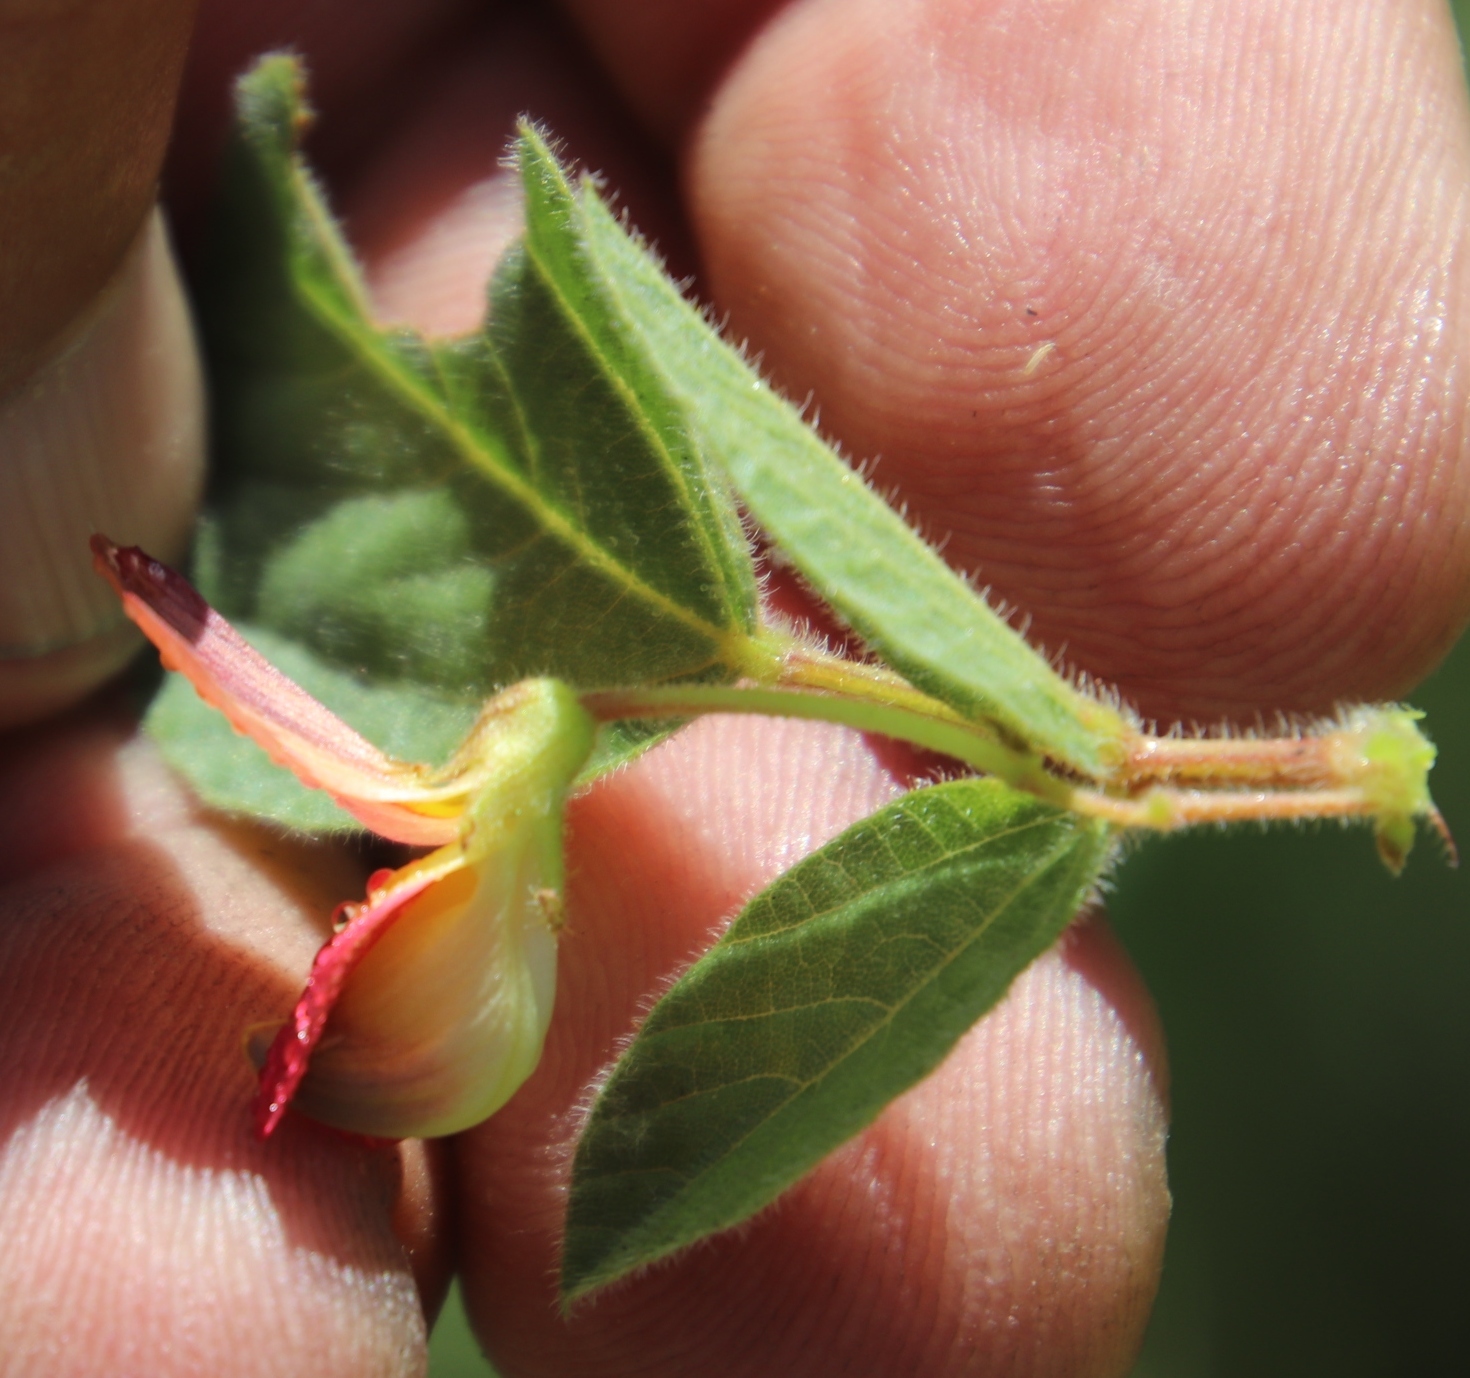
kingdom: Plantae
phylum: Tracheophyta
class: Magnoliopsida
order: Fabales
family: Fabaceae
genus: Rhynchosia
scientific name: Rhynchosia monophylla
